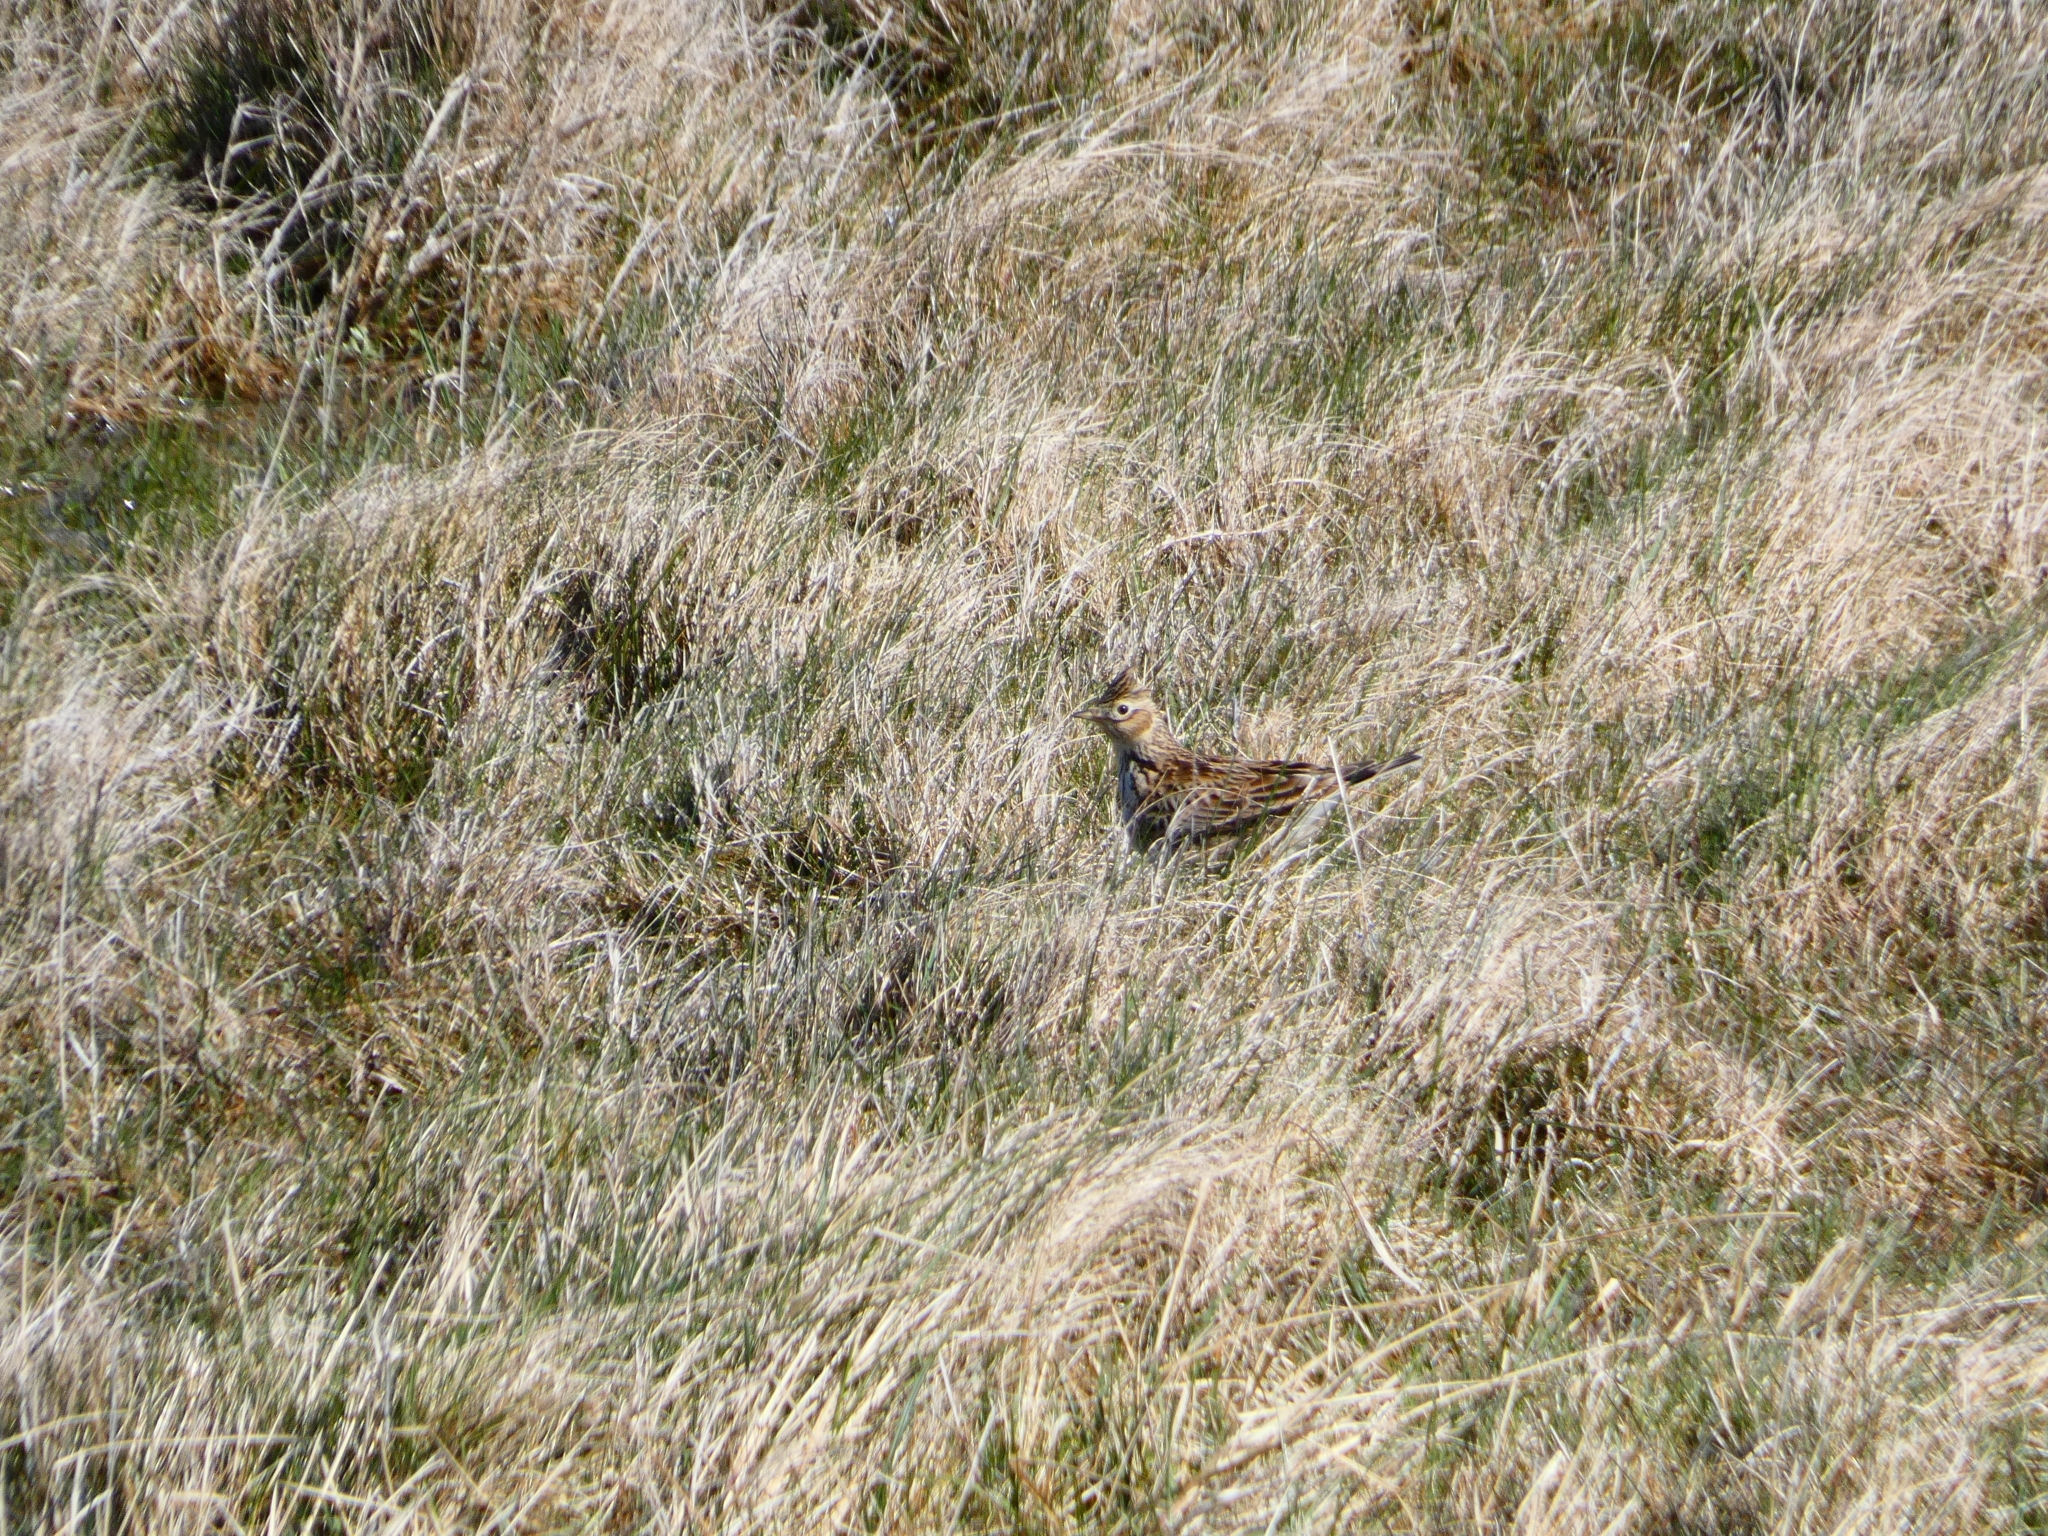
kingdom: Animalia
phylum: Chordata
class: Aves
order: Passeriformes
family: Alaudidae
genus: Alauda
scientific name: Alauda arvensis
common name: Eurasian skylark
